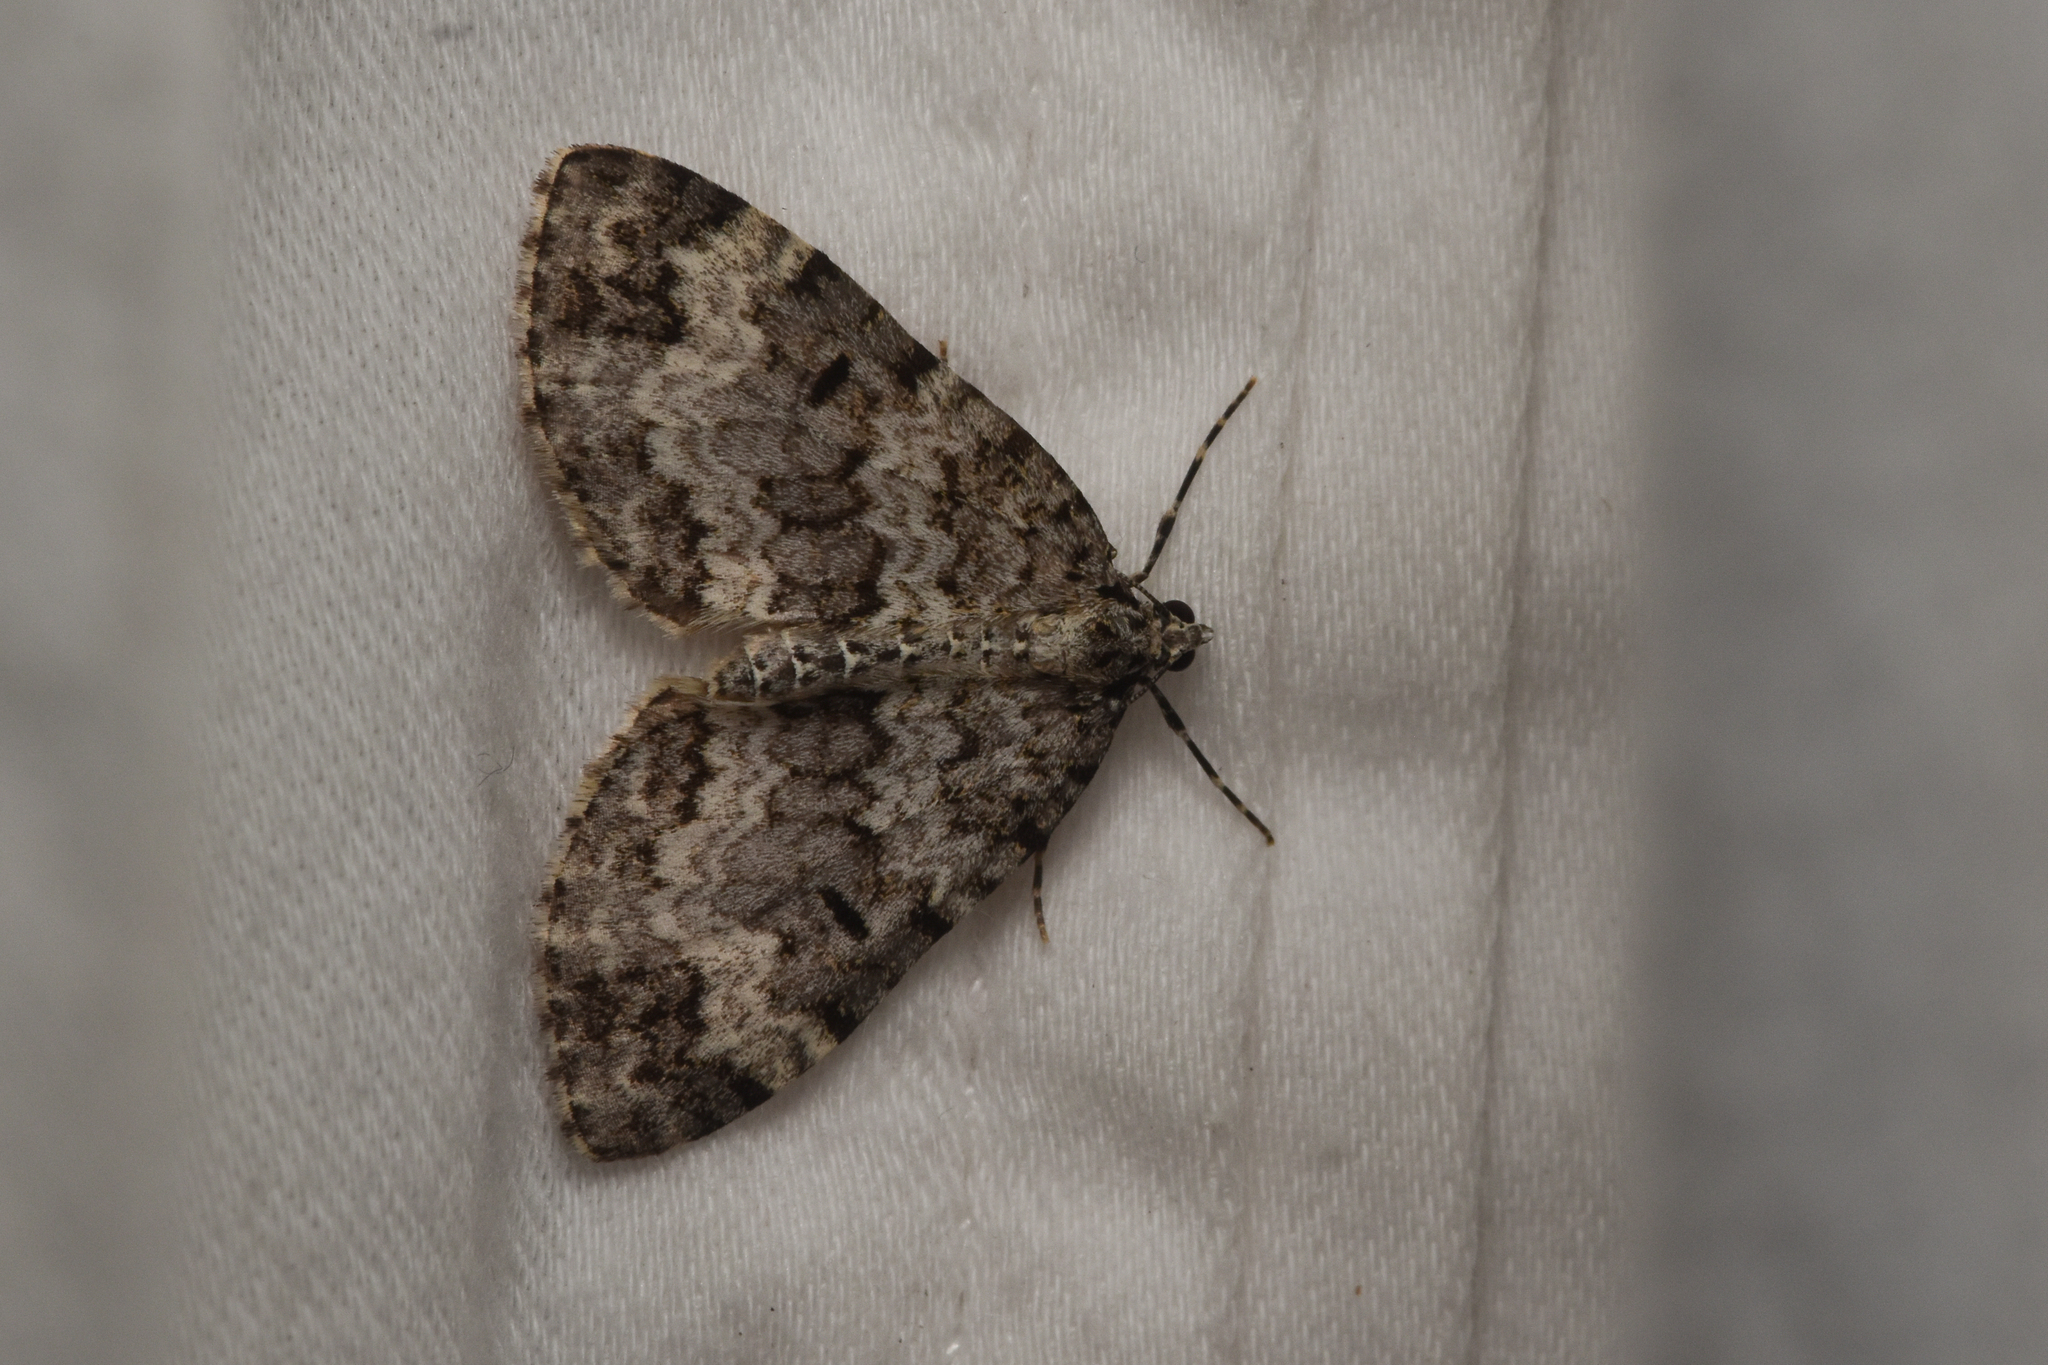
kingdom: Animalia
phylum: Arthropoda
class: Insecta
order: Lepidoptera
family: Geometridae
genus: Spargania
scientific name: Spargania magnoliata
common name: Double-banded carpet
